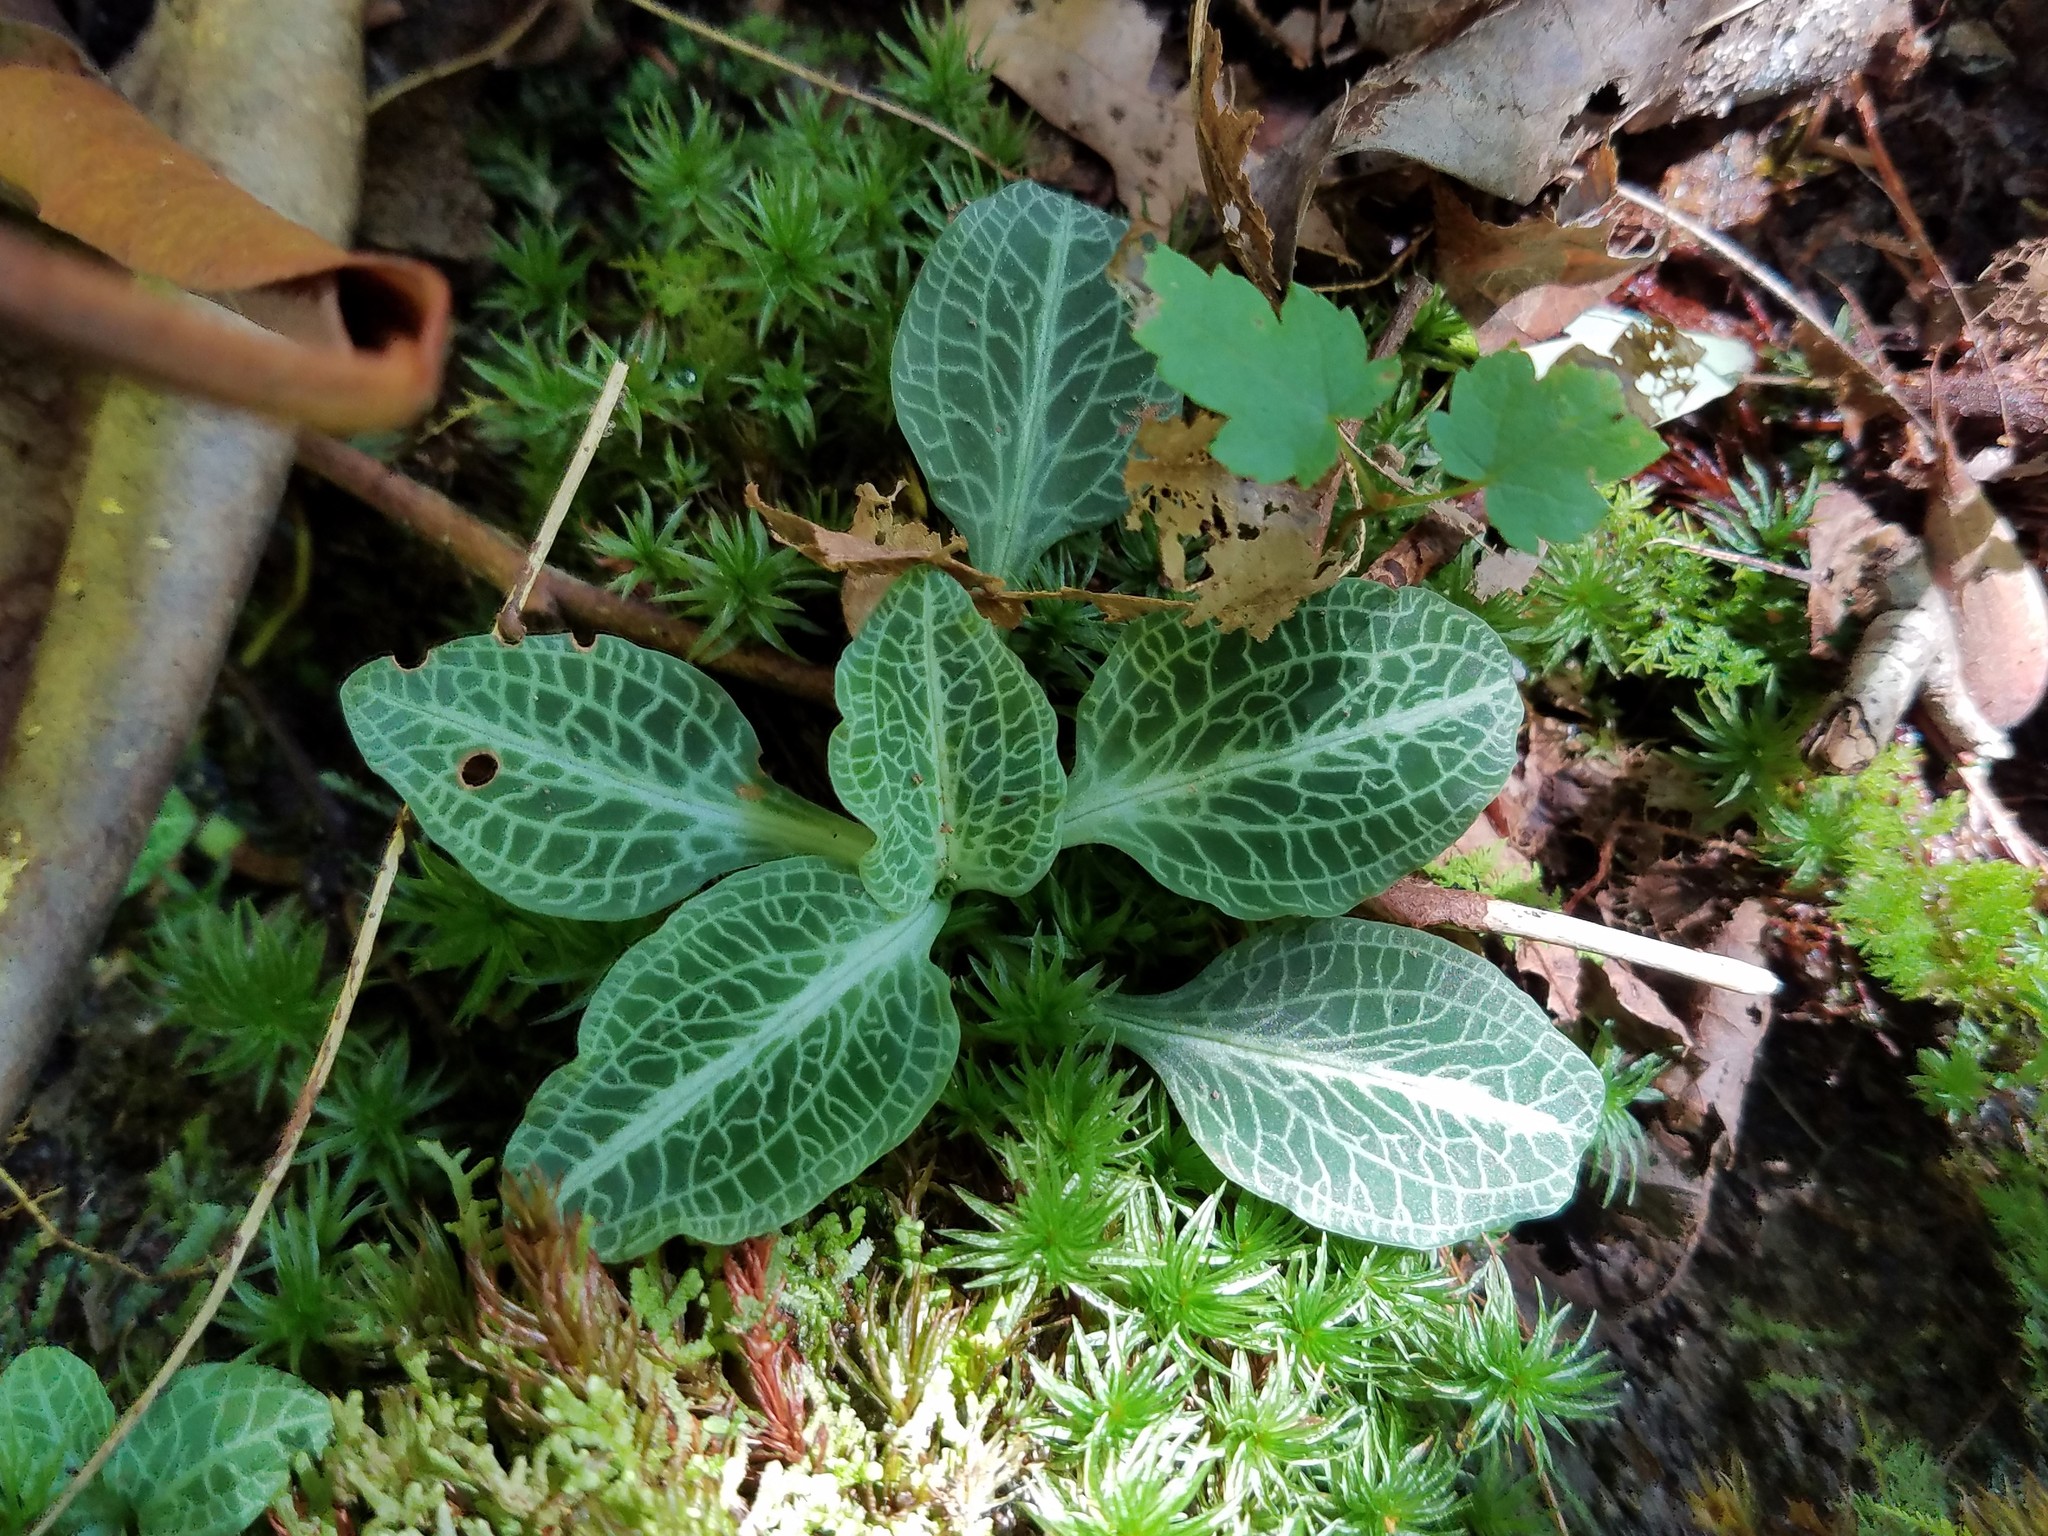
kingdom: Plantae
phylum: Tracheophyta
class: Liliopsida
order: Asparagales
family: Orchidaceae
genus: Goodyera
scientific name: Goodyera pubescens
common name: Downy rattlesnake-plantain
